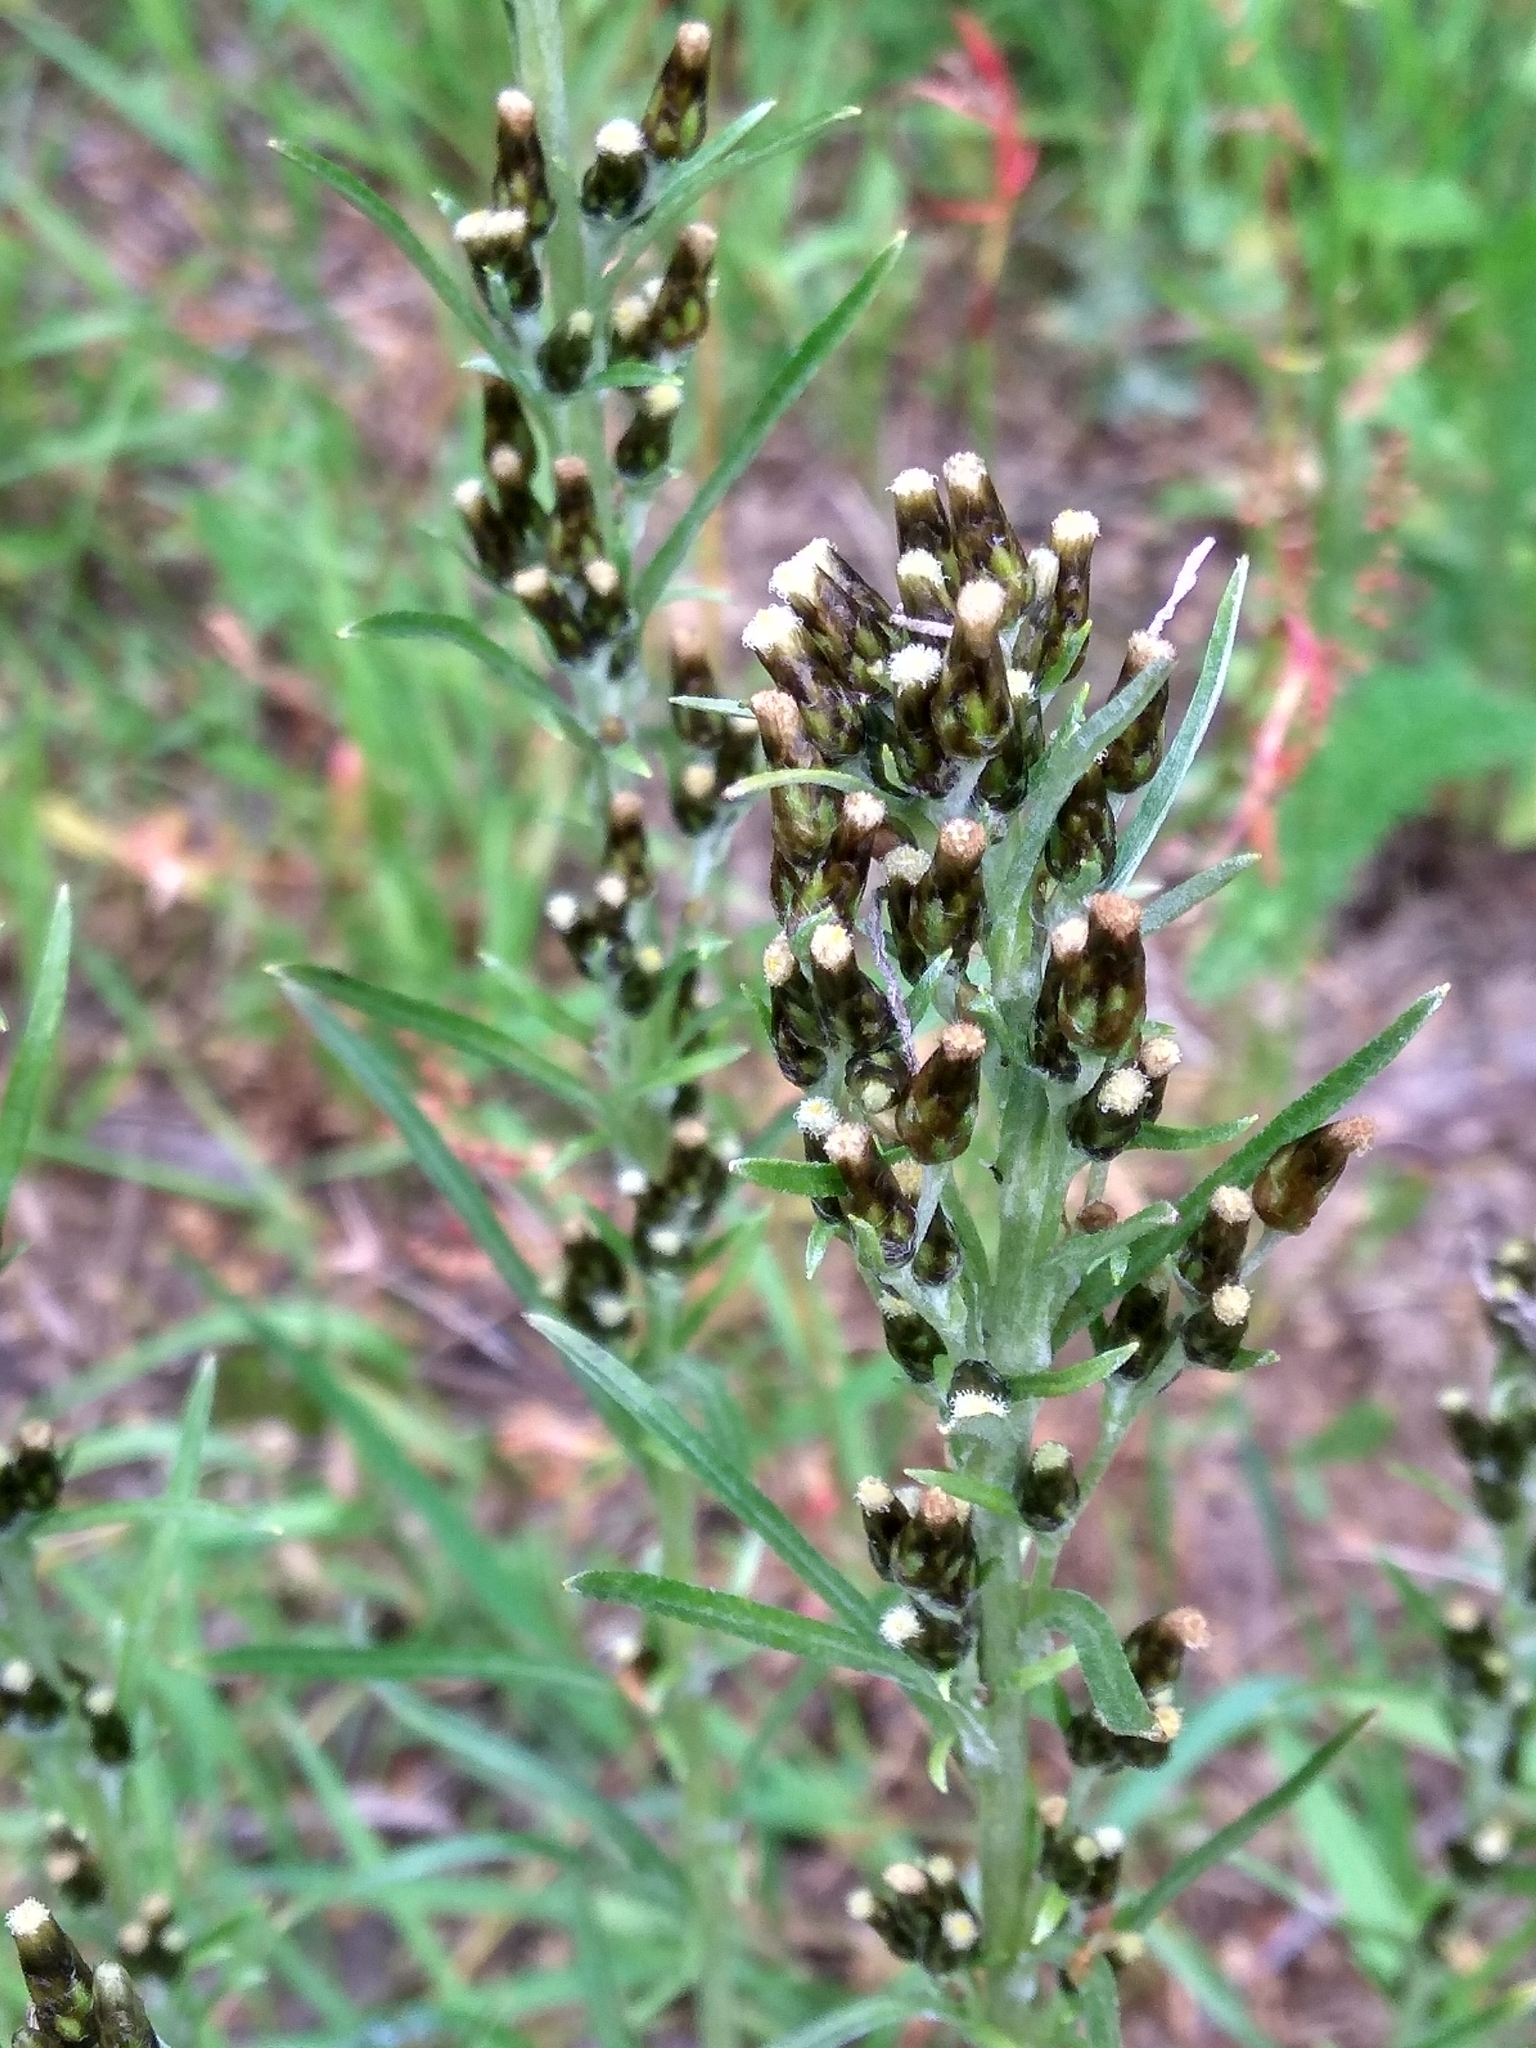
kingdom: Plantae
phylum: Tracheophyta
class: Magnoliopsida
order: Asterales
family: Asteraceae
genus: Omalotheca
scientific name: Omalotheca sylvatica
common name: Heath cudweed
